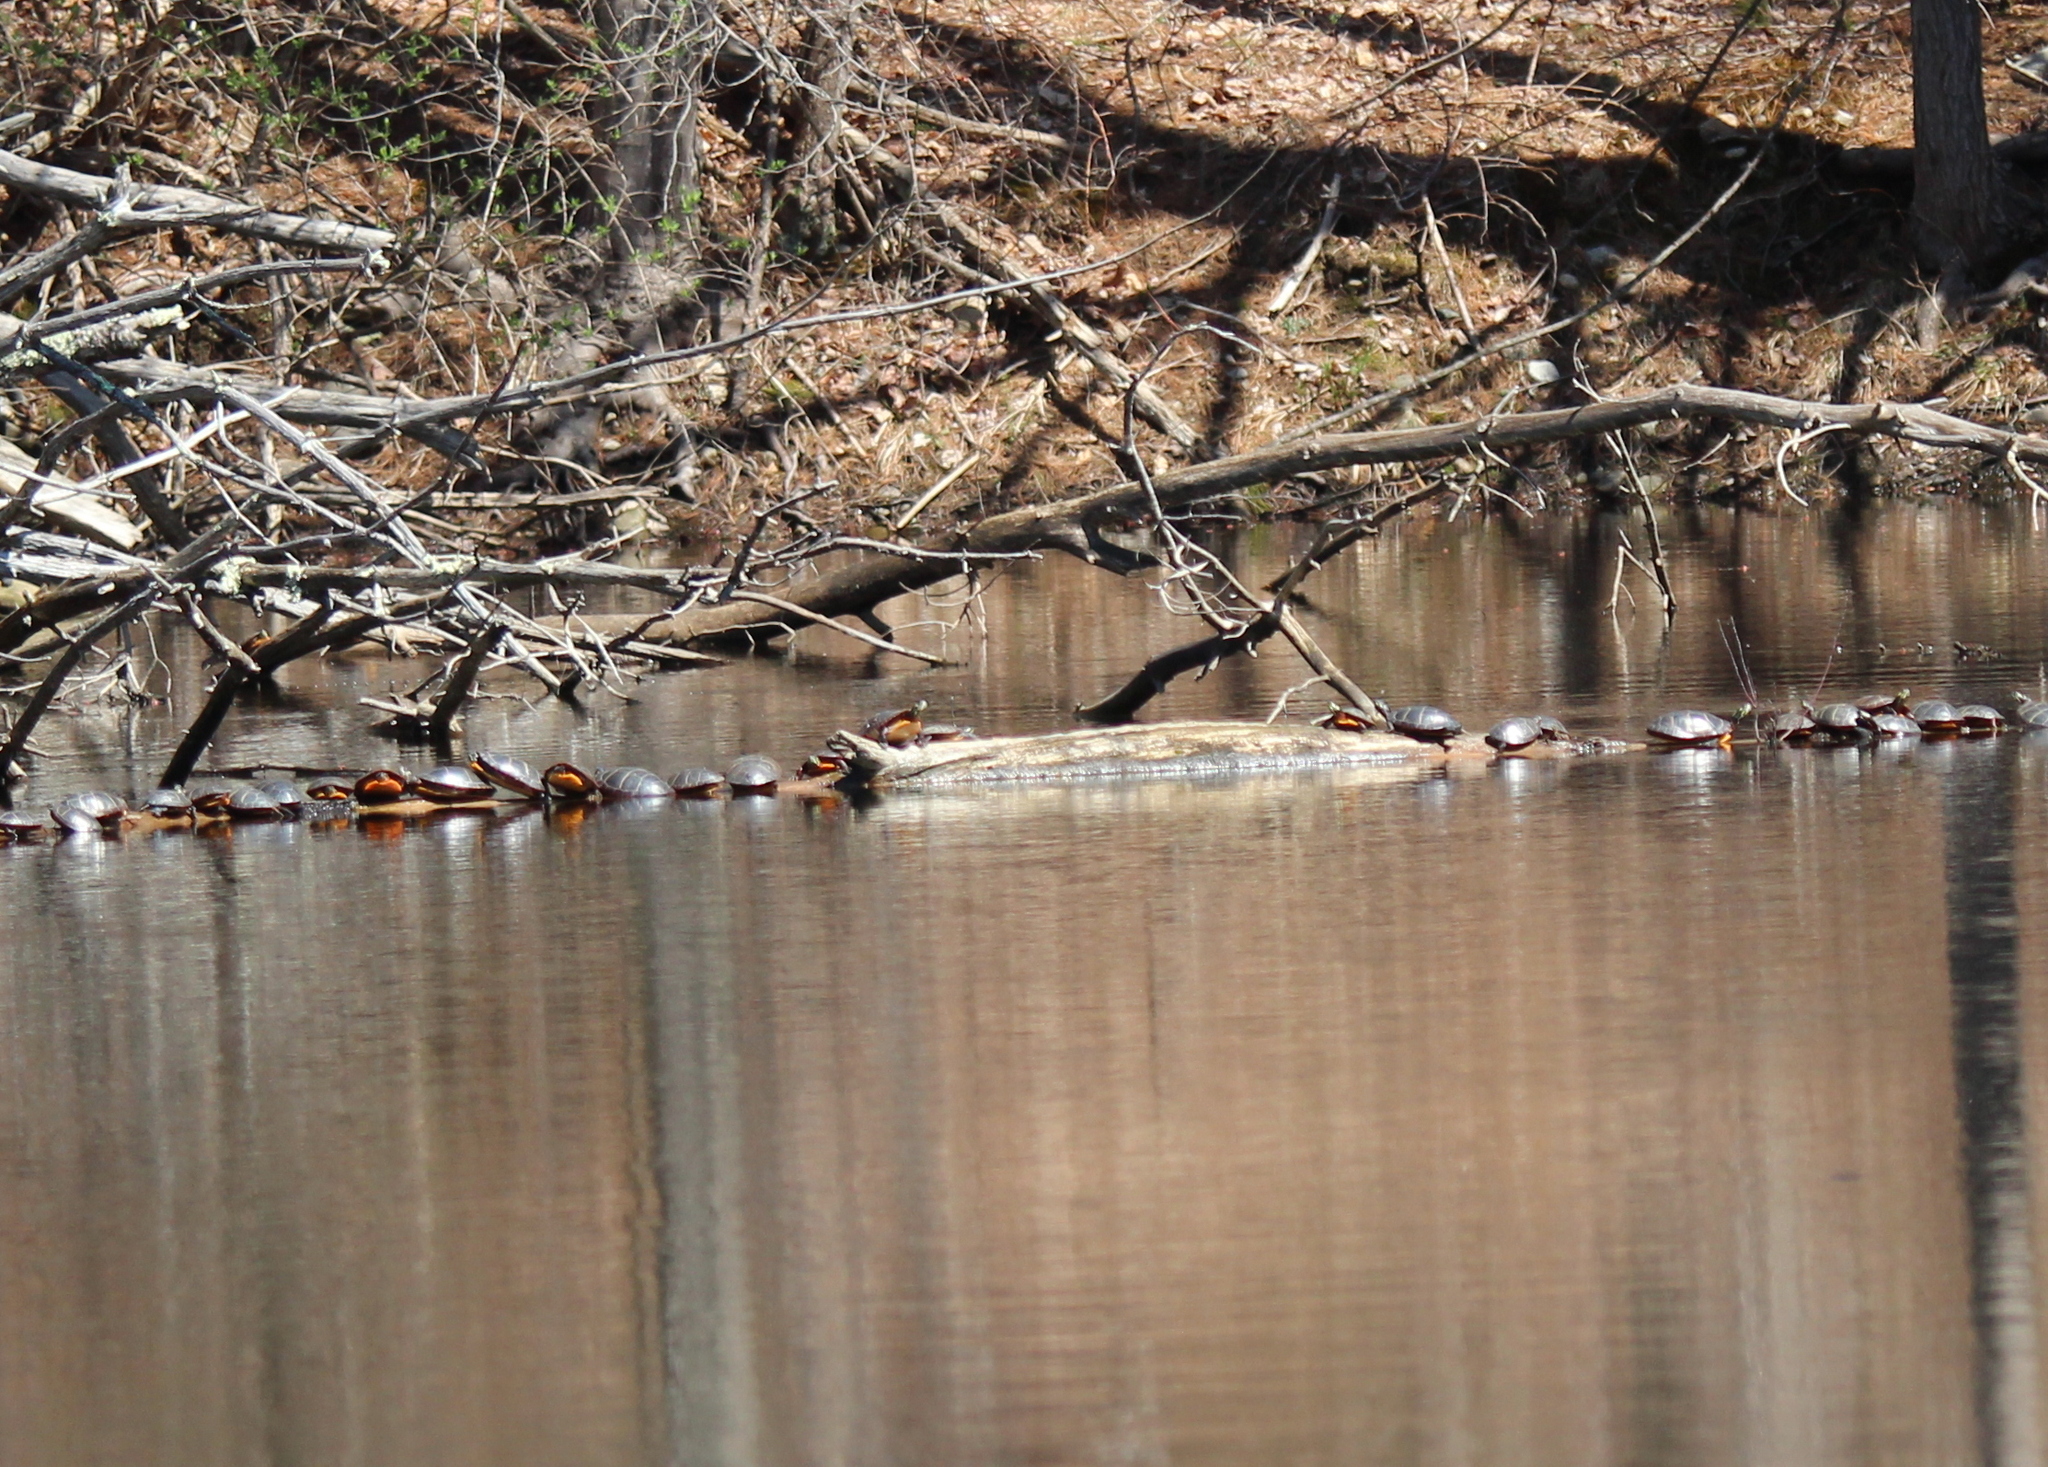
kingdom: Animalia
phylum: Chordata
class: Testudines
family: Emydidae
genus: Chrysemys
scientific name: Chrysemys picta
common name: Painted turtle
